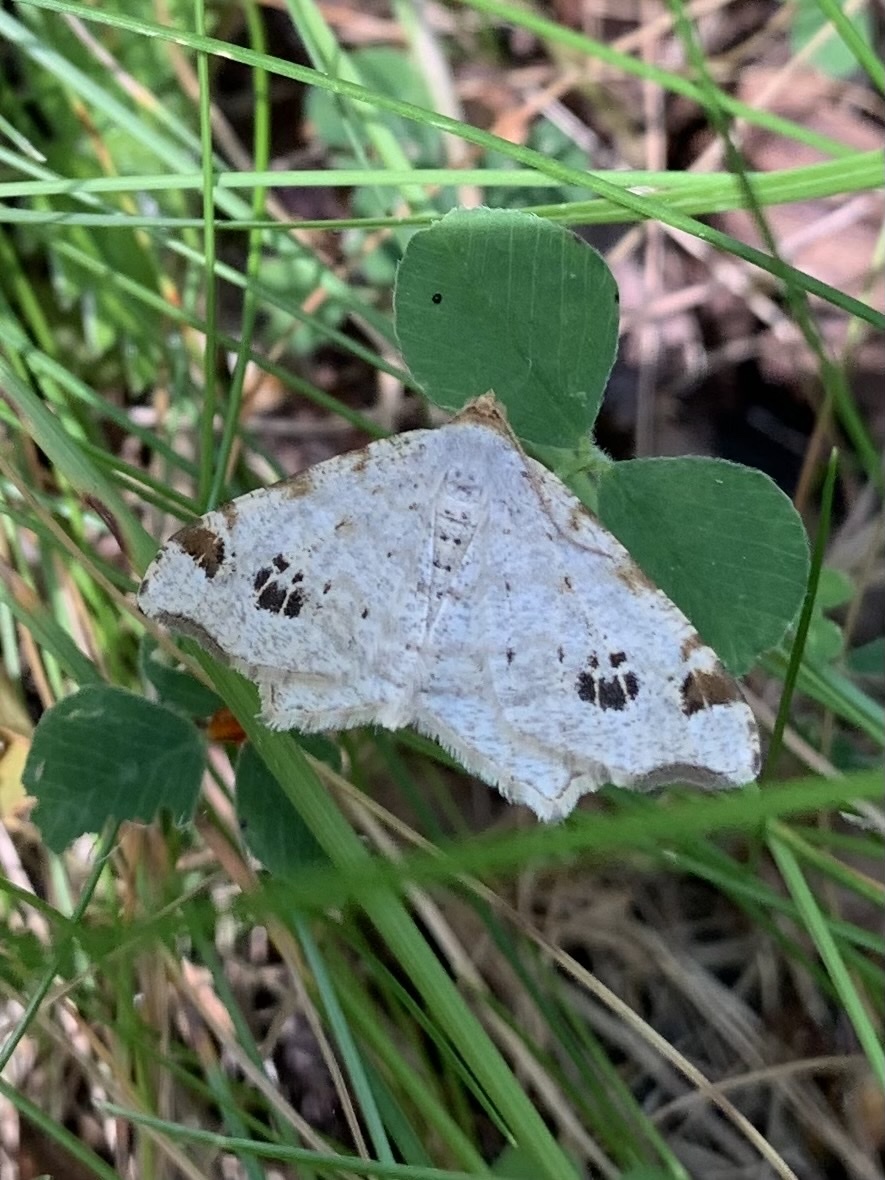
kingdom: Animalia
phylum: Arthropoda
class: Insecta
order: Lepidoptera
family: Geometridae
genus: Macaria
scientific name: Macaria notata
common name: Peacock moth
